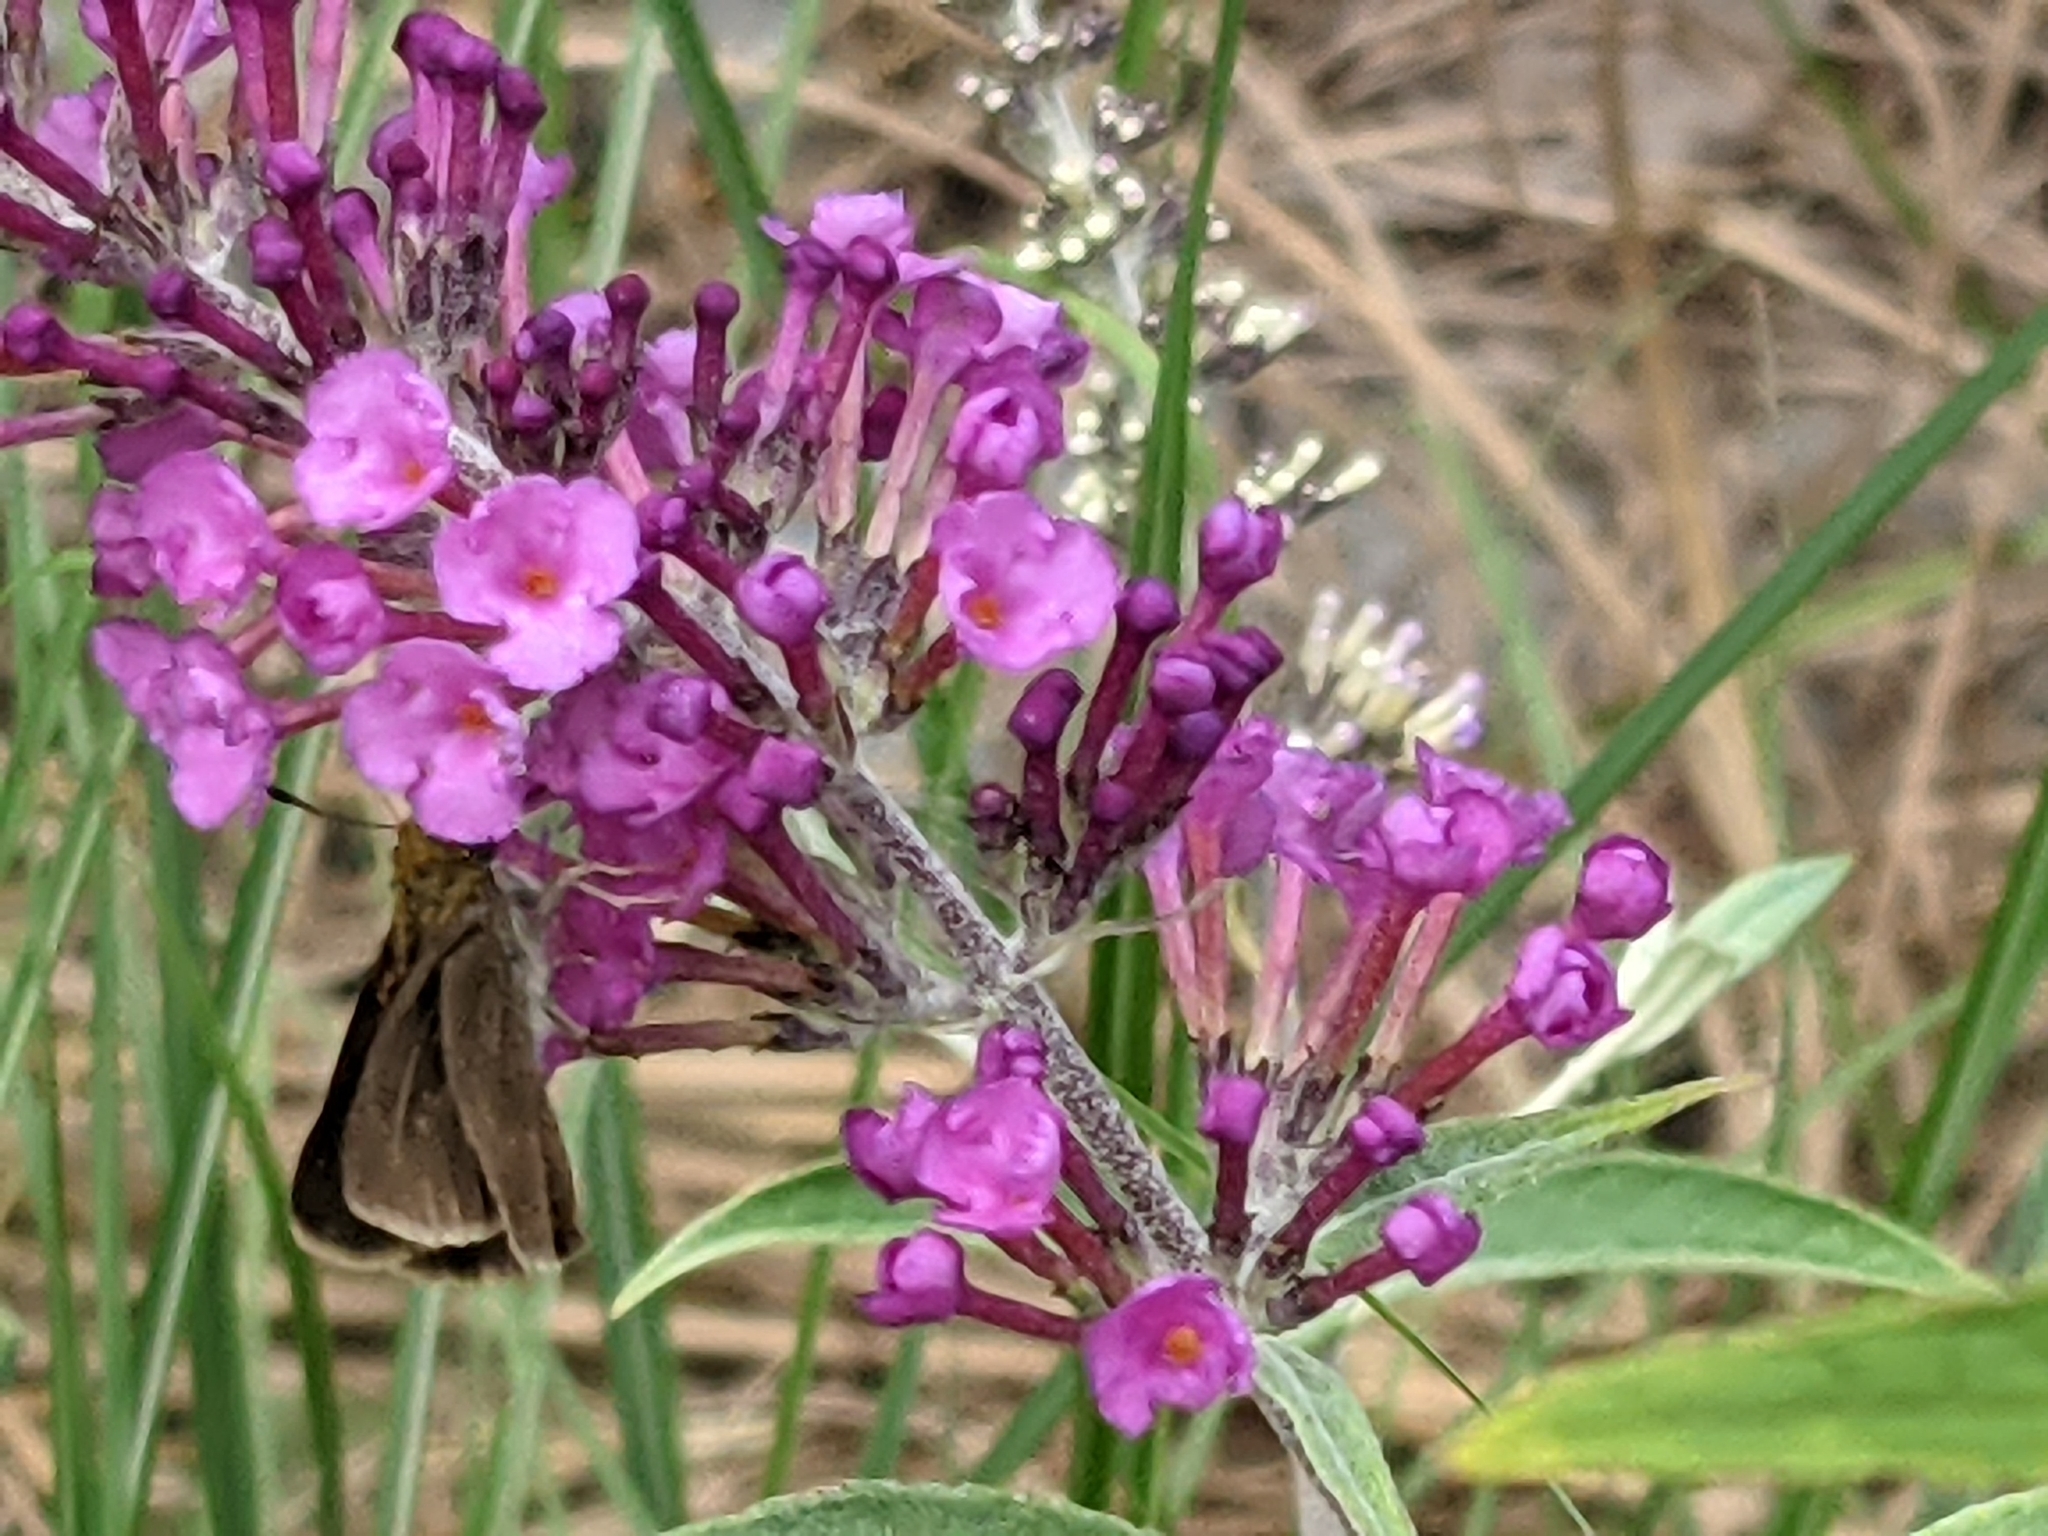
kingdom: Animalia
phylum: Arthropoda
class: Insecta
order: Lepidoptera
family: Hesperiidae
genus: Euphyes
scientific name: Euphyes vestris
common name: Dun skipper
